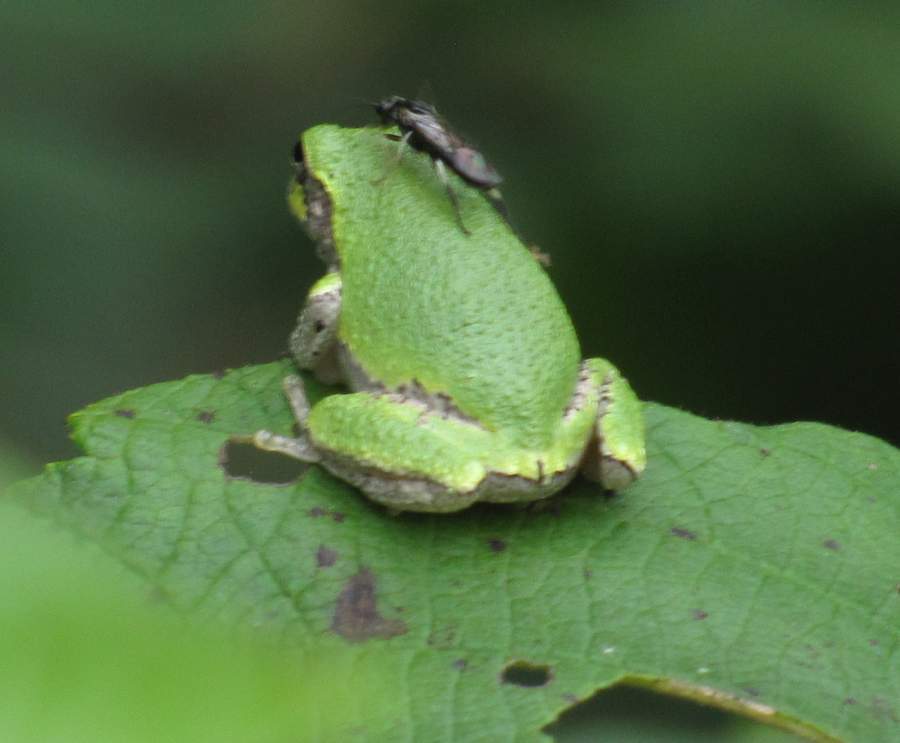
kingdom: Animalia
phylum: Chordata
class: Amphibia
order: Anura
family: Hylidae
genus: Dryophytes
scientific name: Dryophytes versicolor
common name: Gray treefrog
